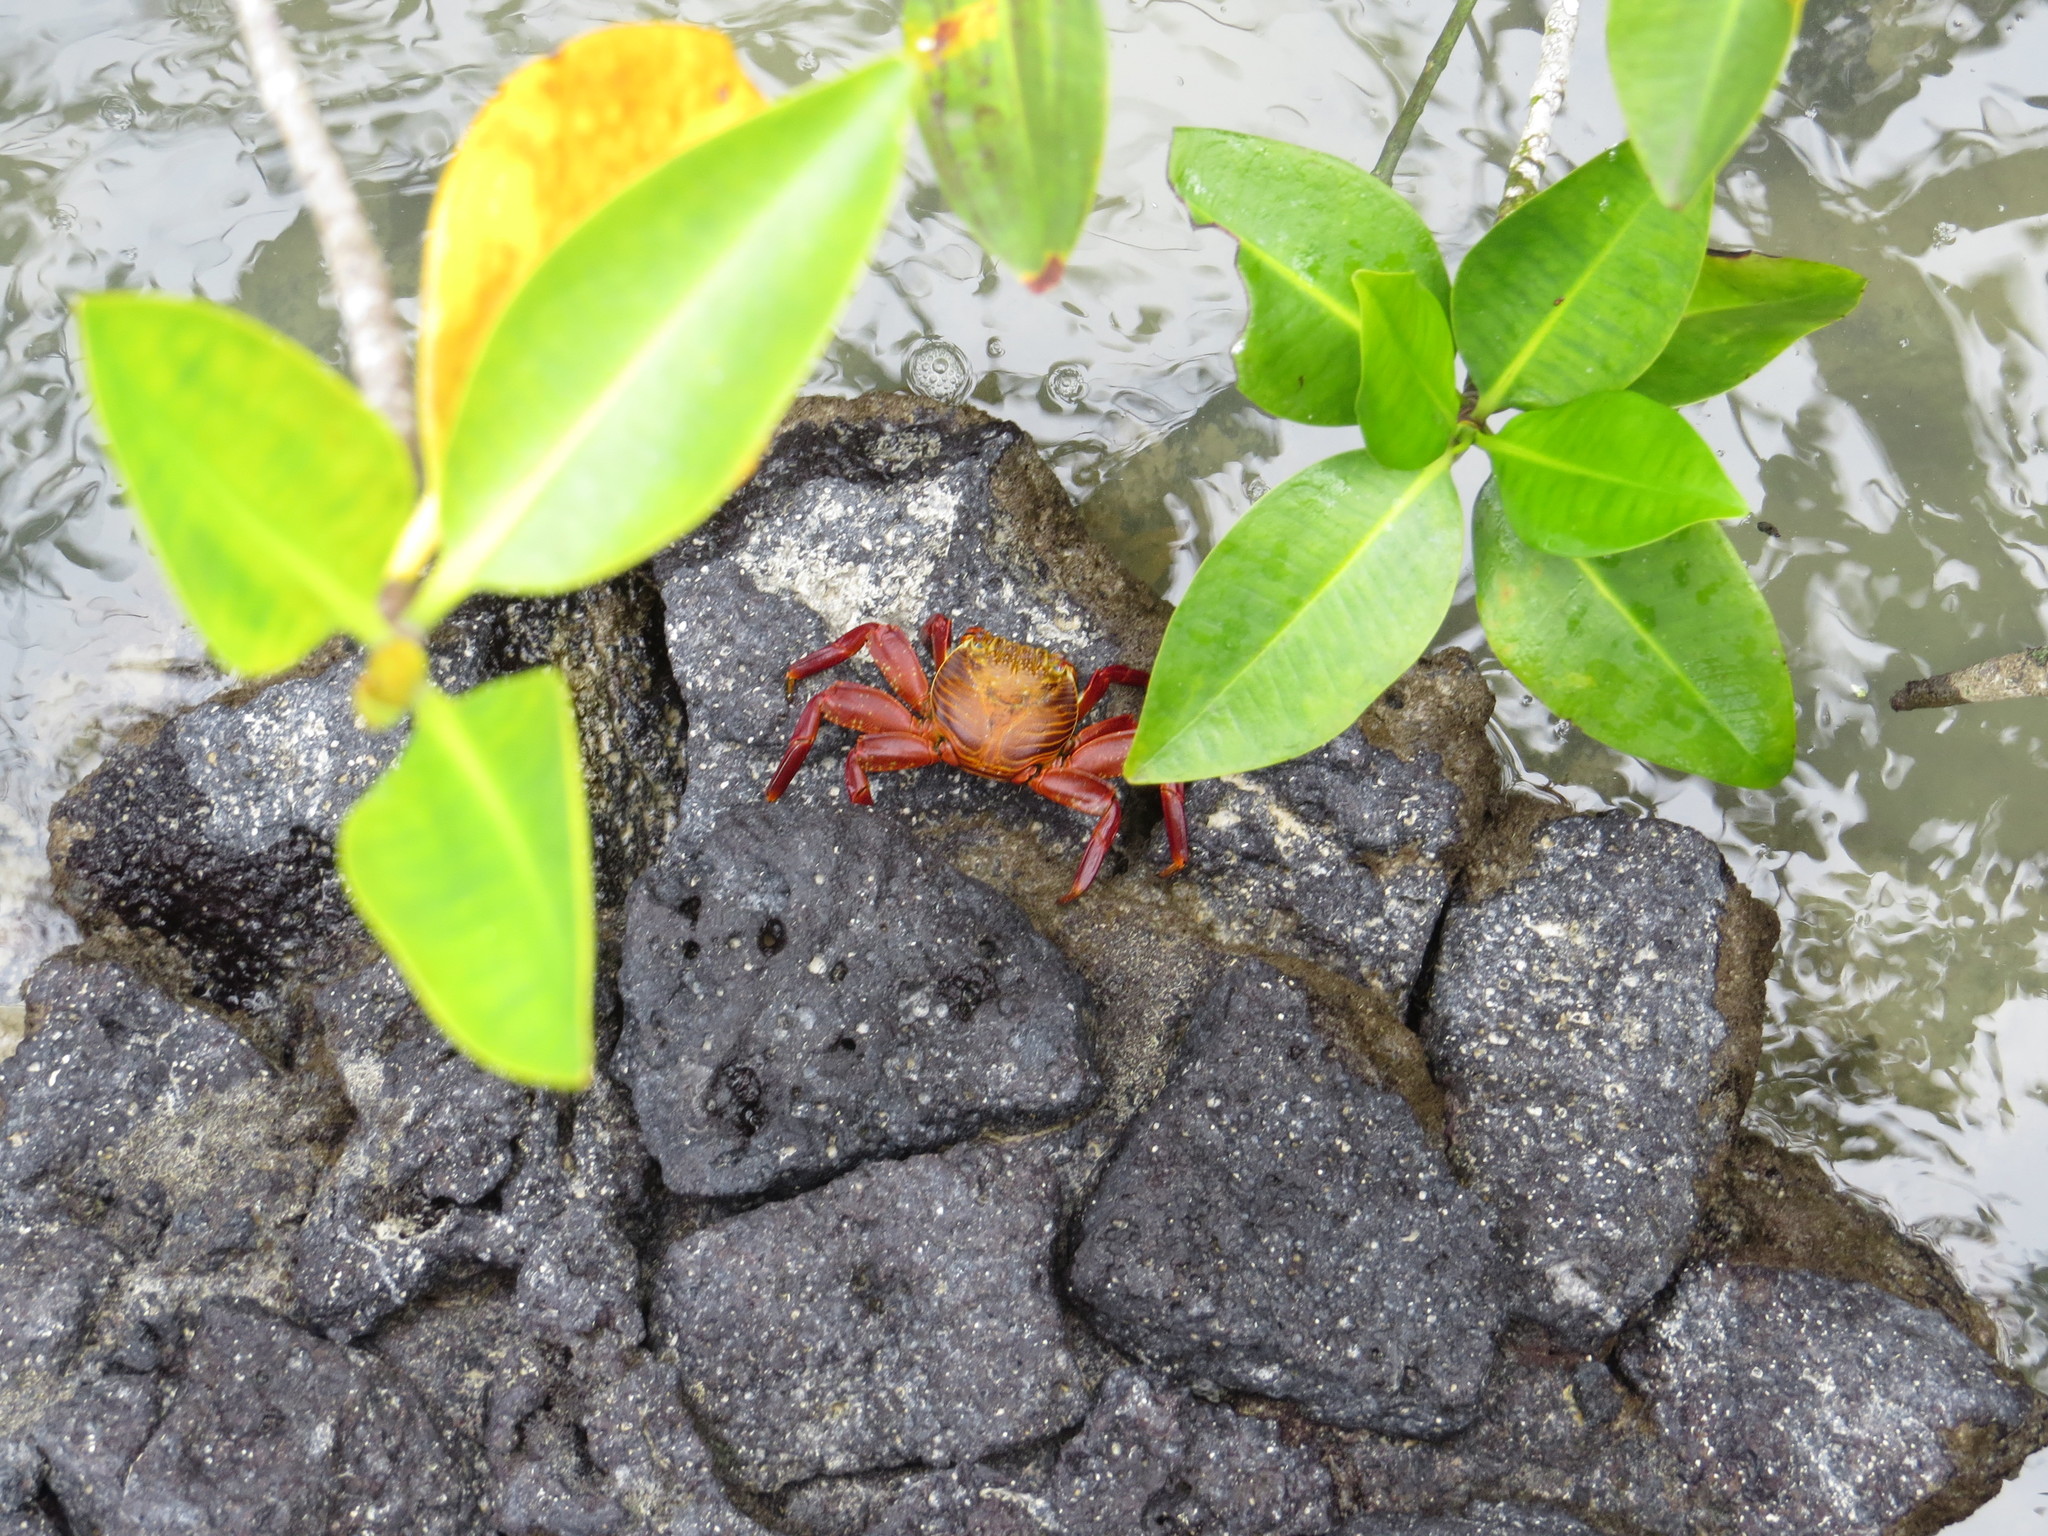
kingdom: Animalia
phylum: Arthropoda
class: Malacostraca
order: Decapoda
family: Grapsidae
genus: Grapsus
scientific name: Grapsus grapsus
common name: Sally lightfoot
